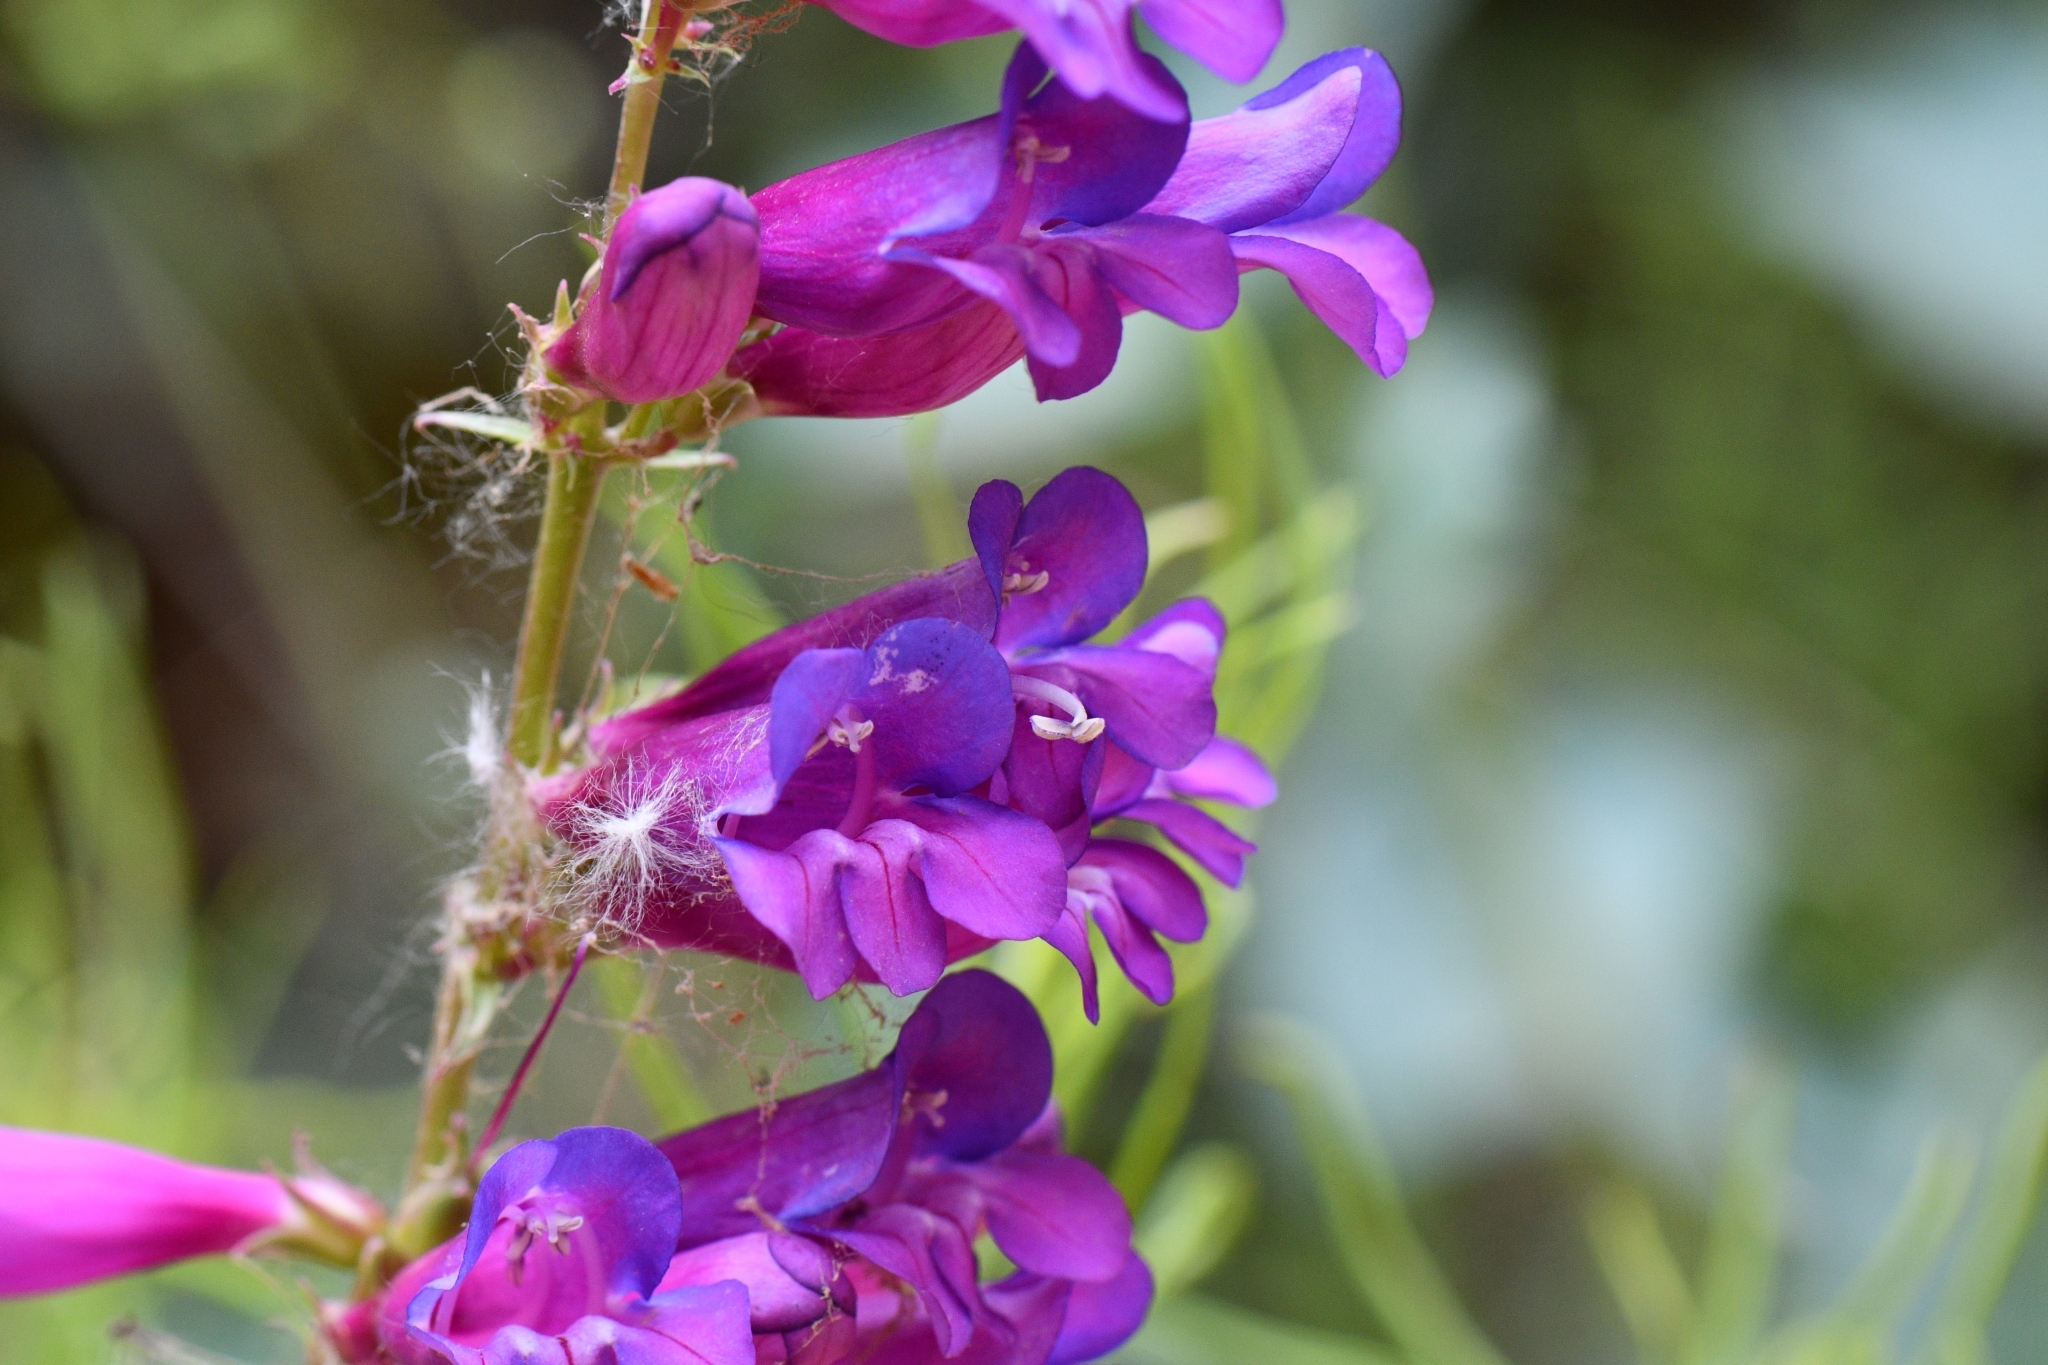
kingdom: Plantae
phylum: Tracheophyta
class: Magnoliopsida
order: Lamiales
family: Plantaginaceae
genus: Penstemon
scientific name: Penstemon jonesii
